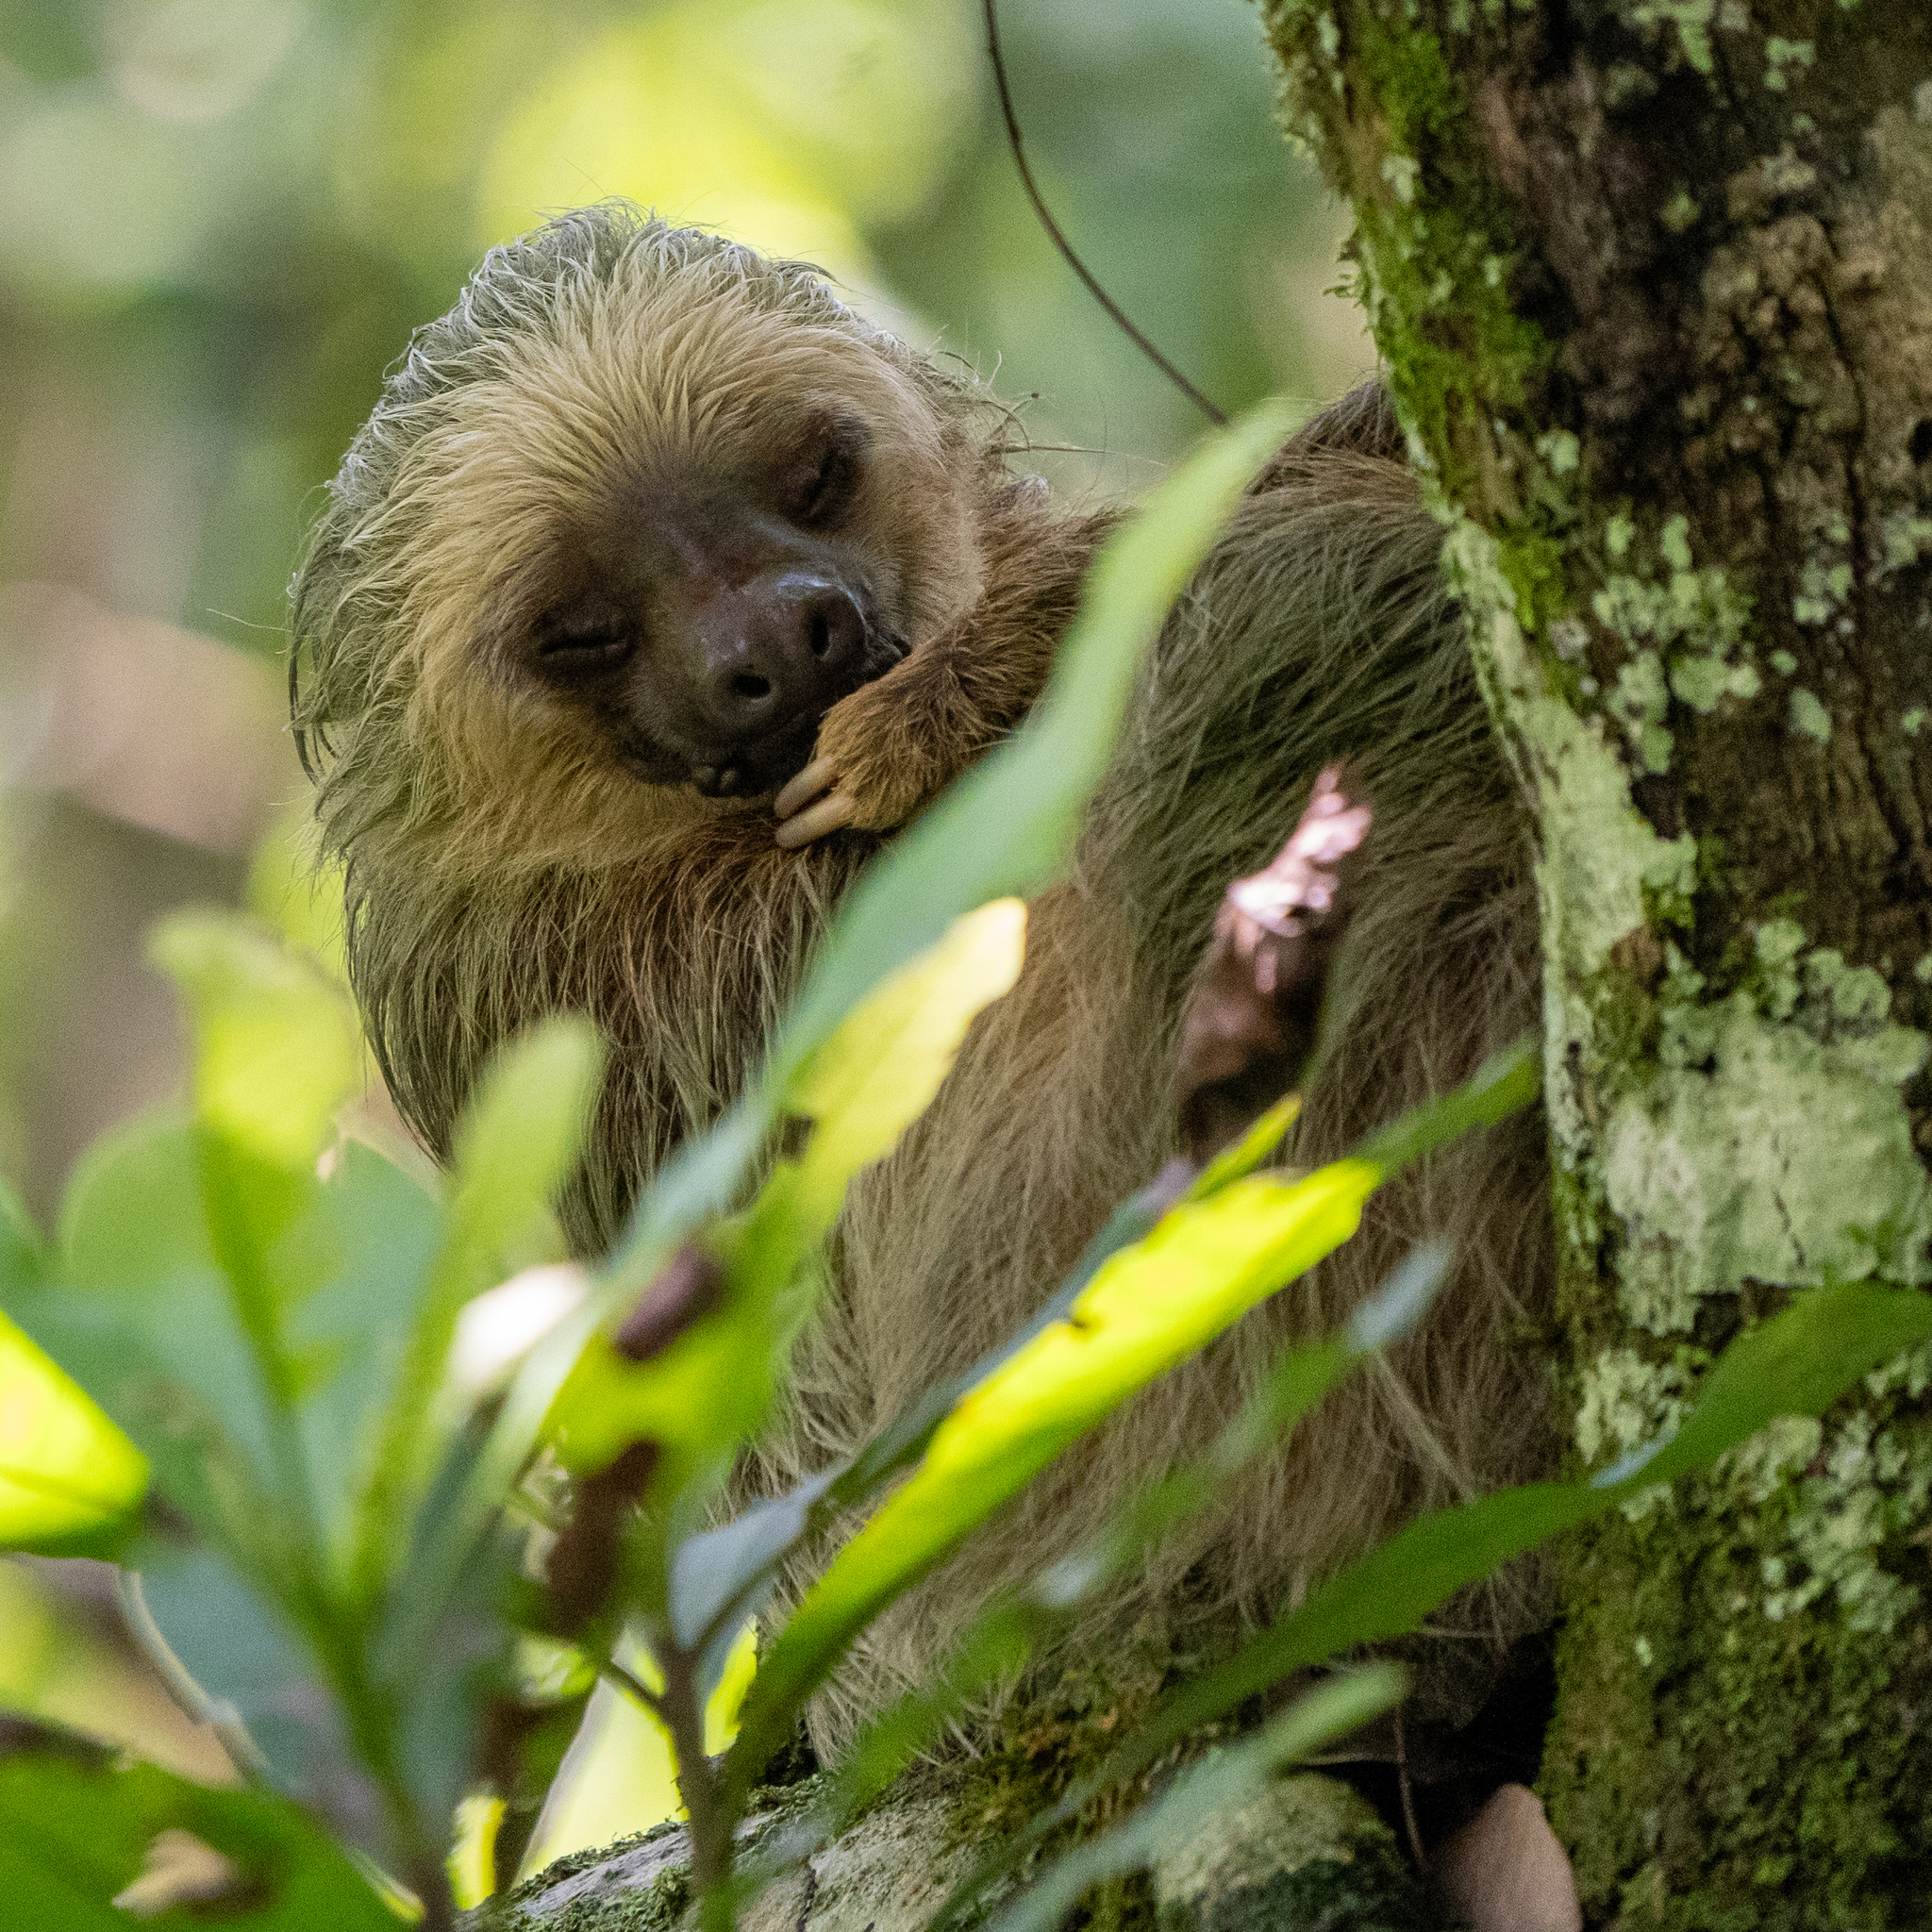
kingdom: Animalia
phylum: Chordata
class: Mammalia
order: Pilosa
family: Megalonychidae
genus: Choloepus
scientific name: Choloepus hoffmanni
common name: Hoffmann's two-toed sloth
